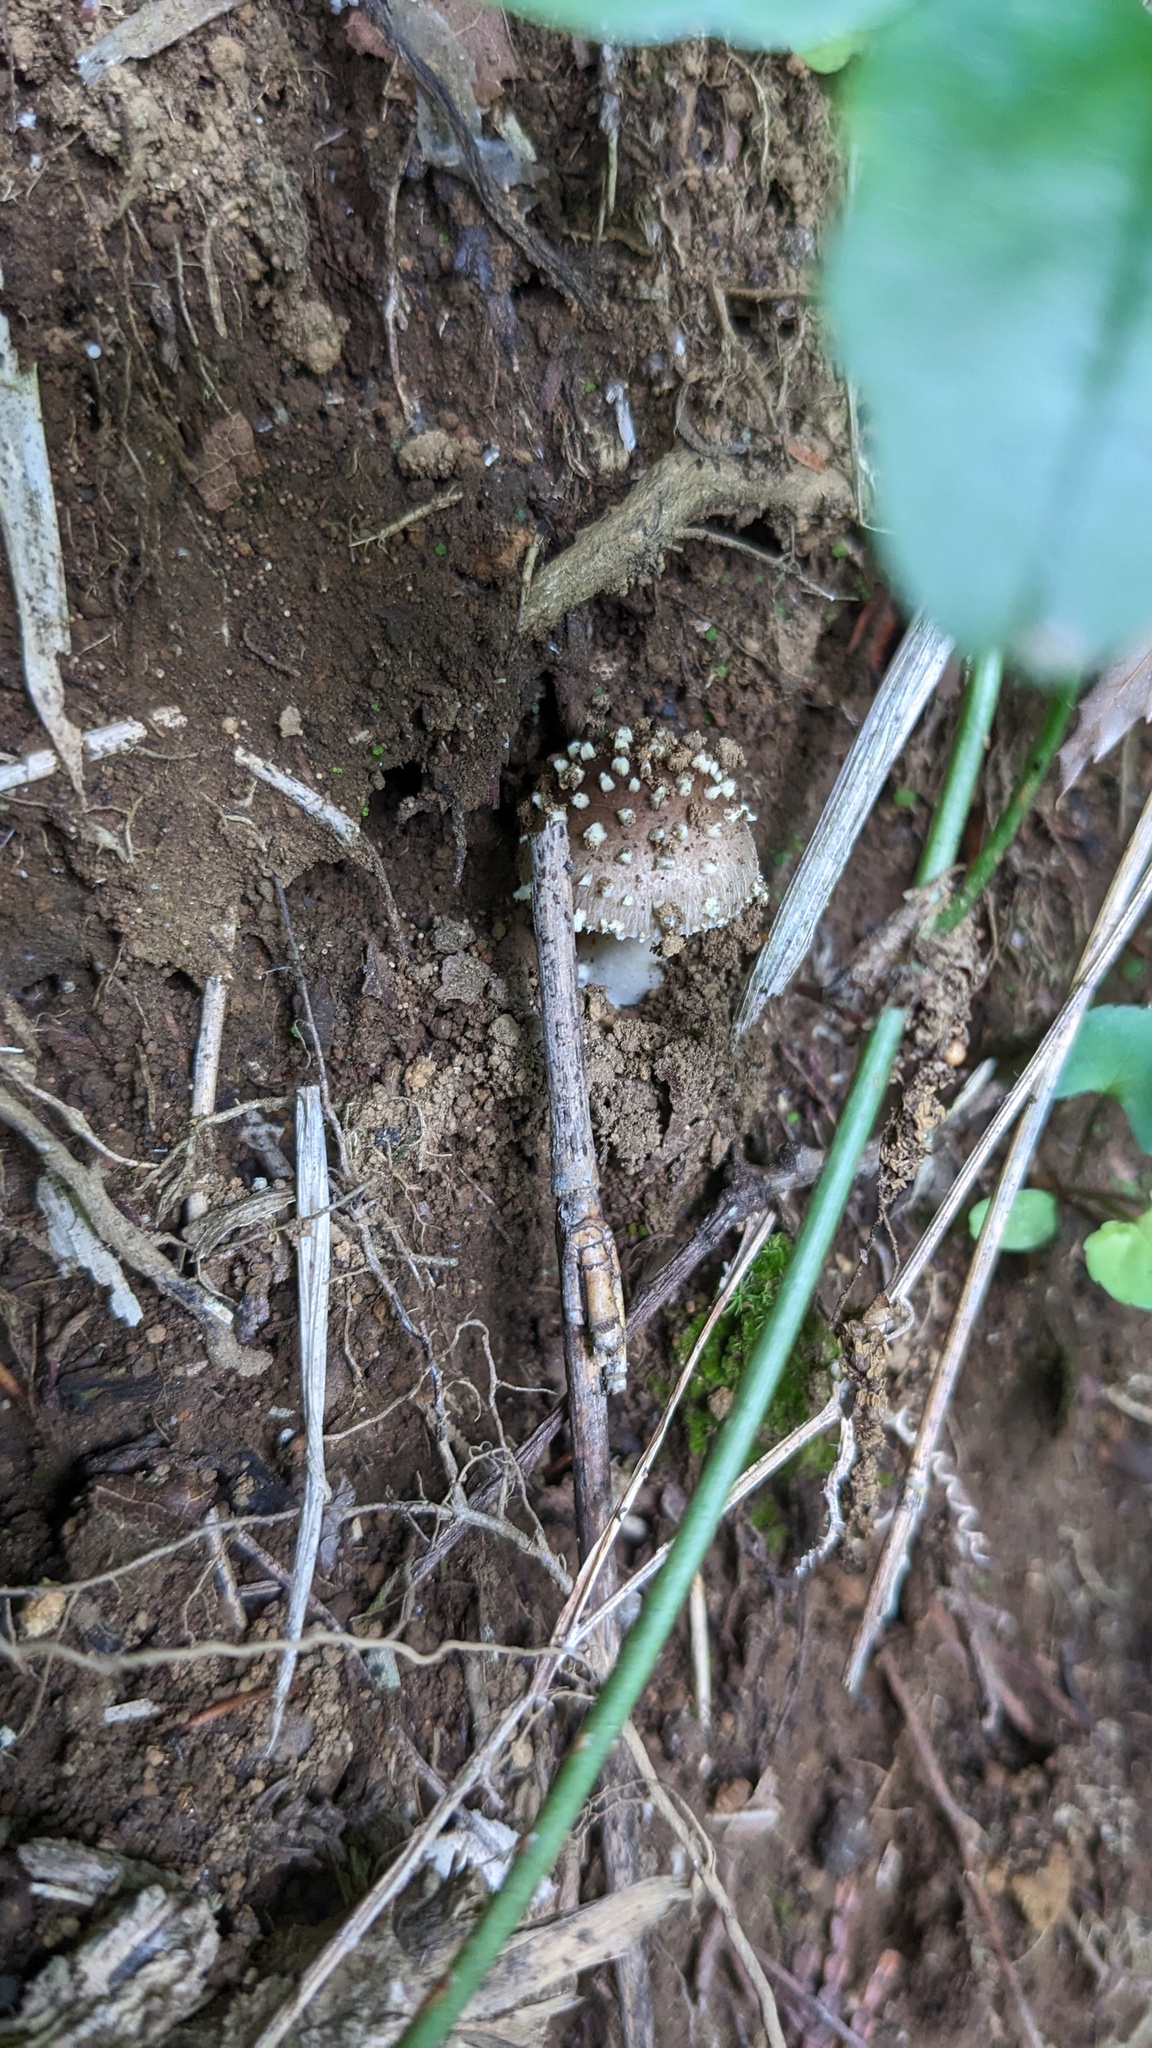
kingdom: Fungi
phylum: Basidiomycota
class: Agaricomycetes
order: Agaricales
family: Amanitaceae
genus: Amanita
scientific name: Amanita sychnopyramis
